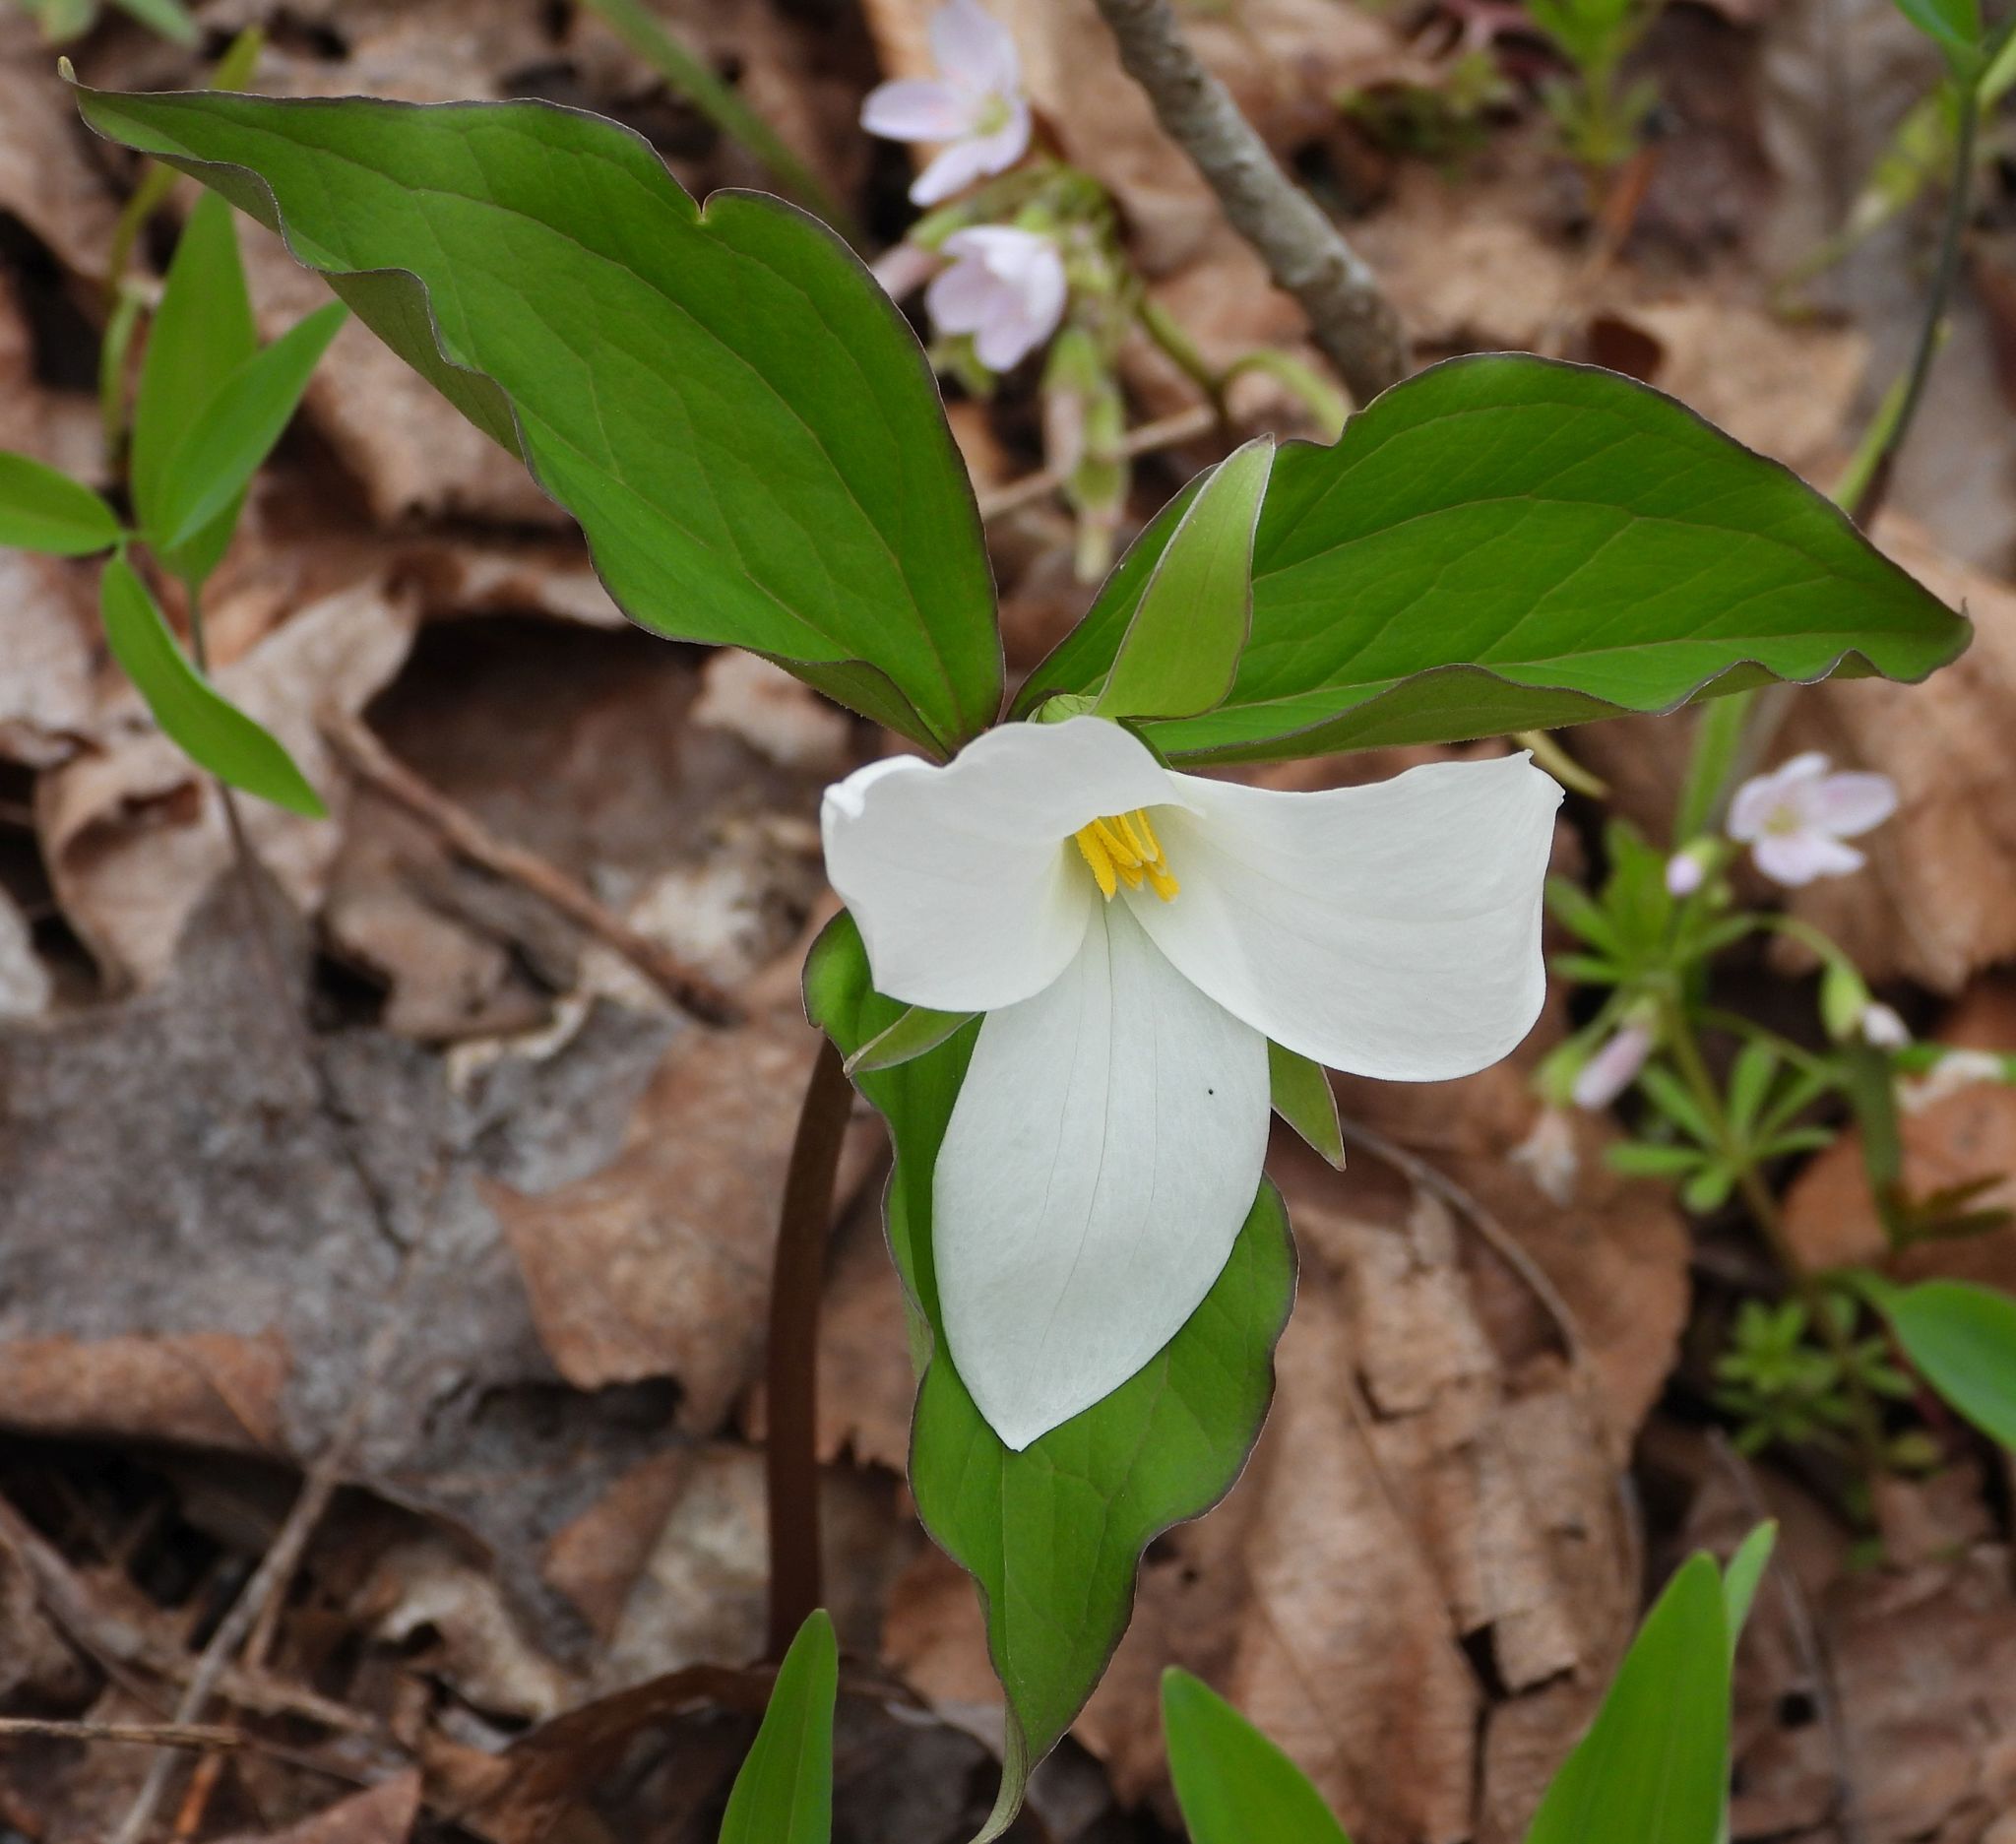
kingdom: Plantae
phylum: Tracheophyta
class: Liliopsida
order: Liliales
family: Melanthiaceae
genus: Trillium
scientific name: Trillium grandiflorum
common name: Great white trillium
